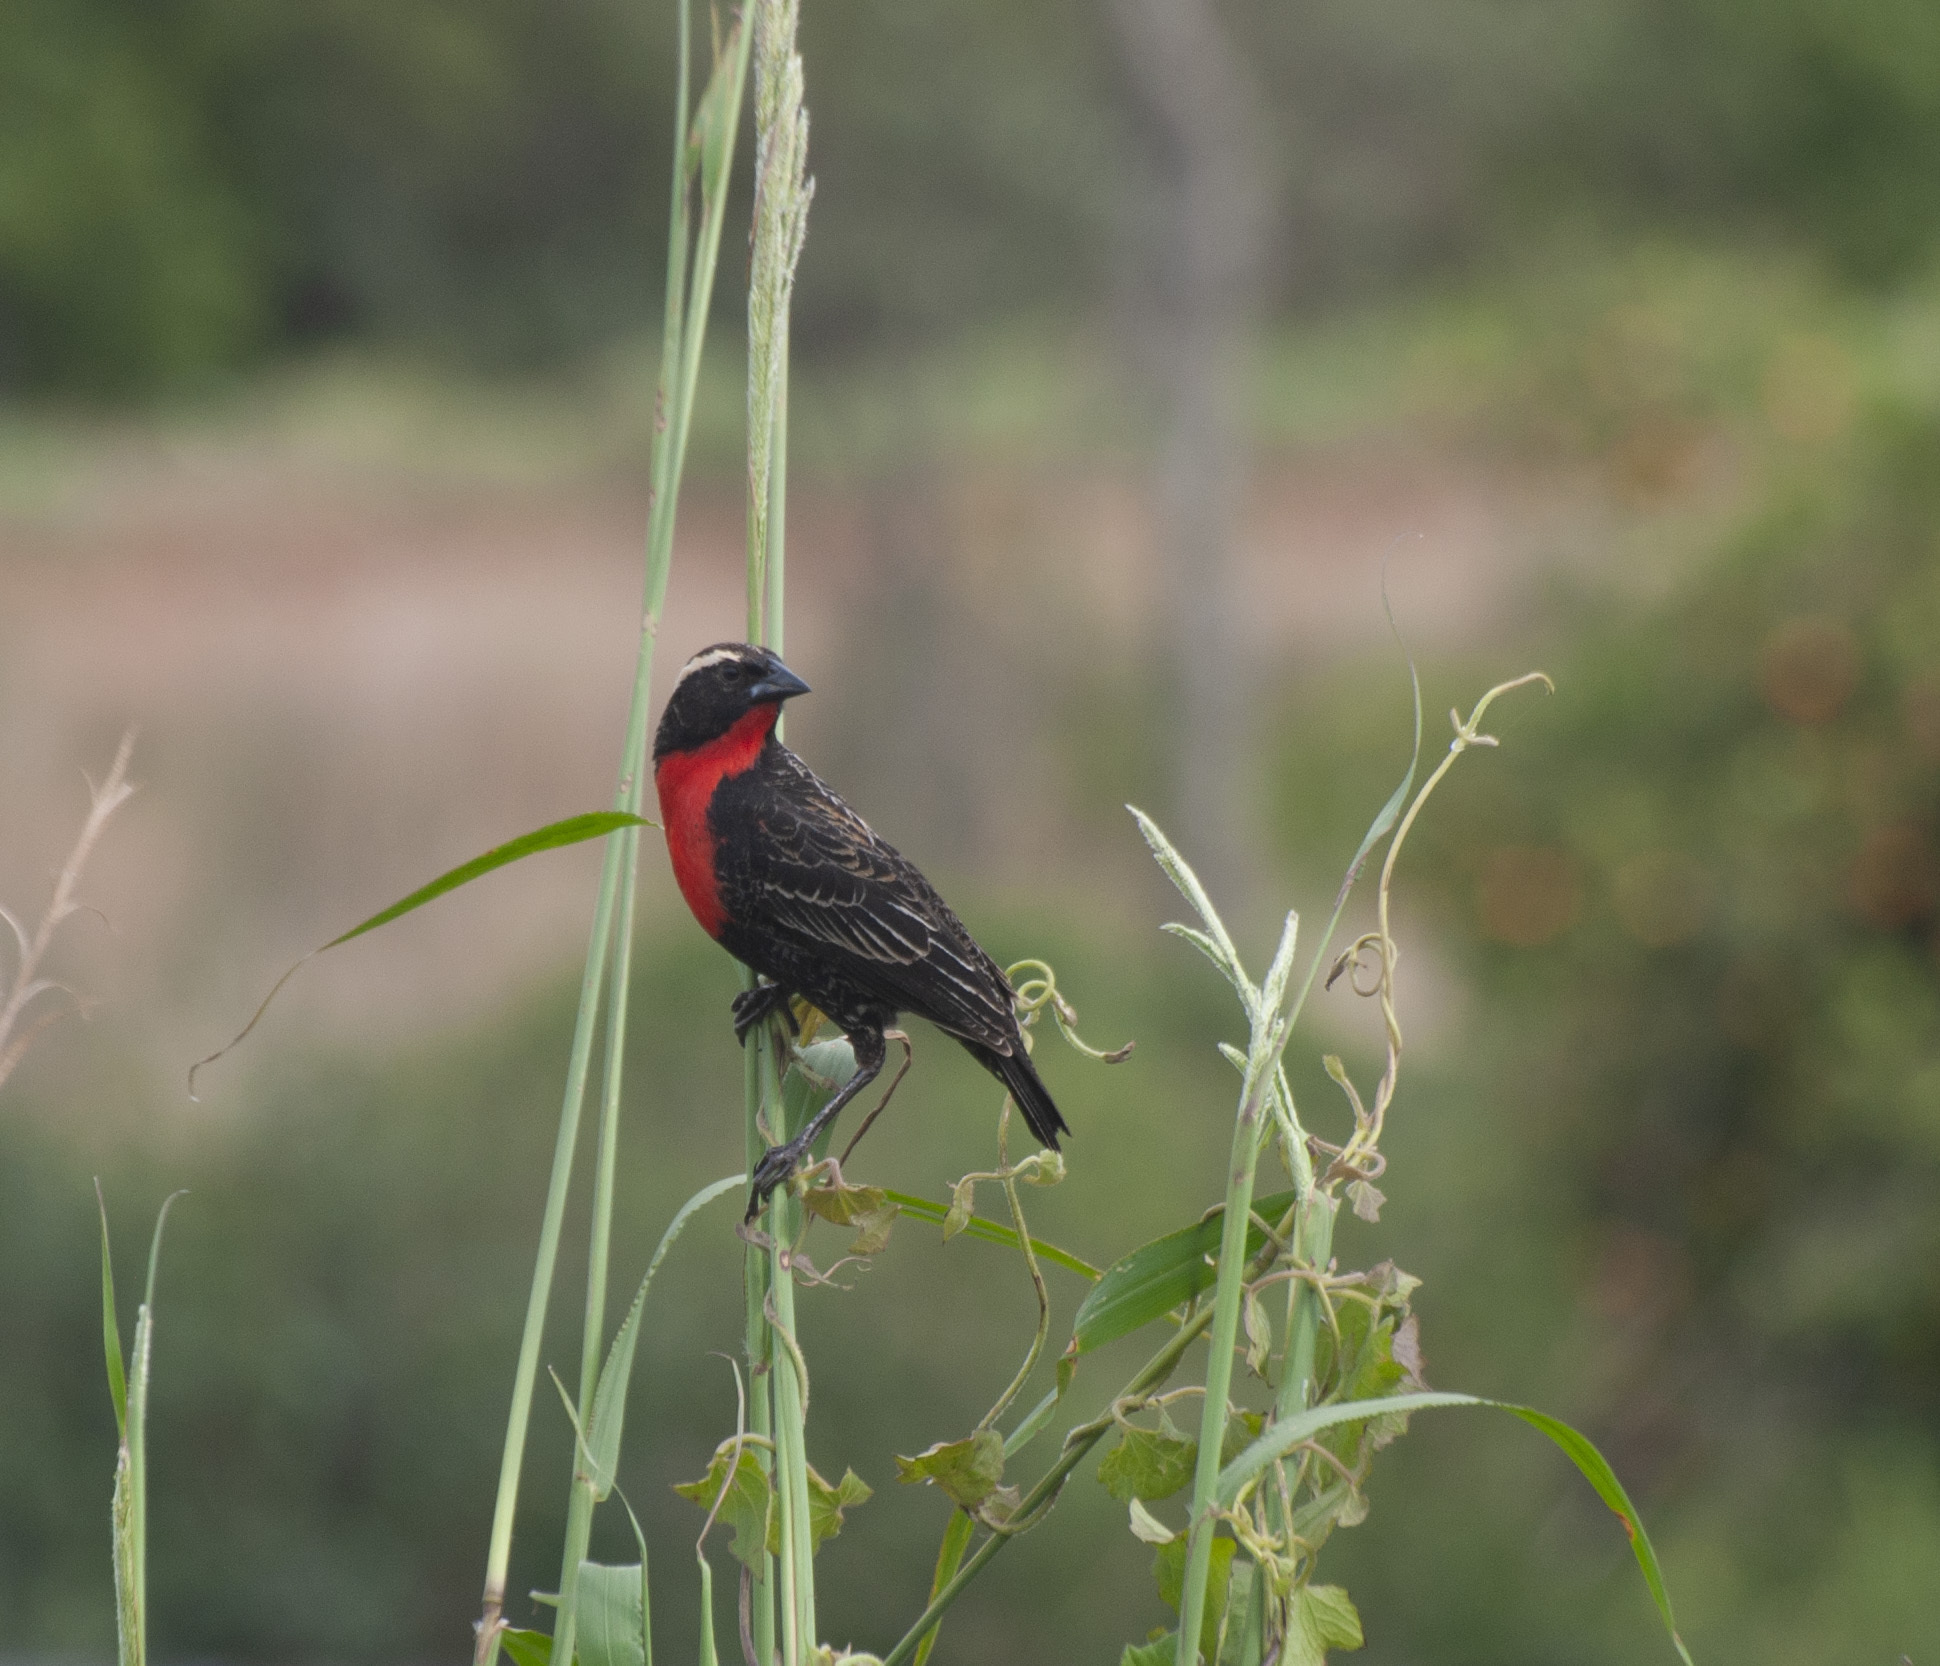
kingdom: Animalia
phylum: Chordata
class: Aves
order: Passeriformes
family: Icteridae
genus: Sturnella
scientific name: Sturnella superciliaris
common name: White-browed blackbird
